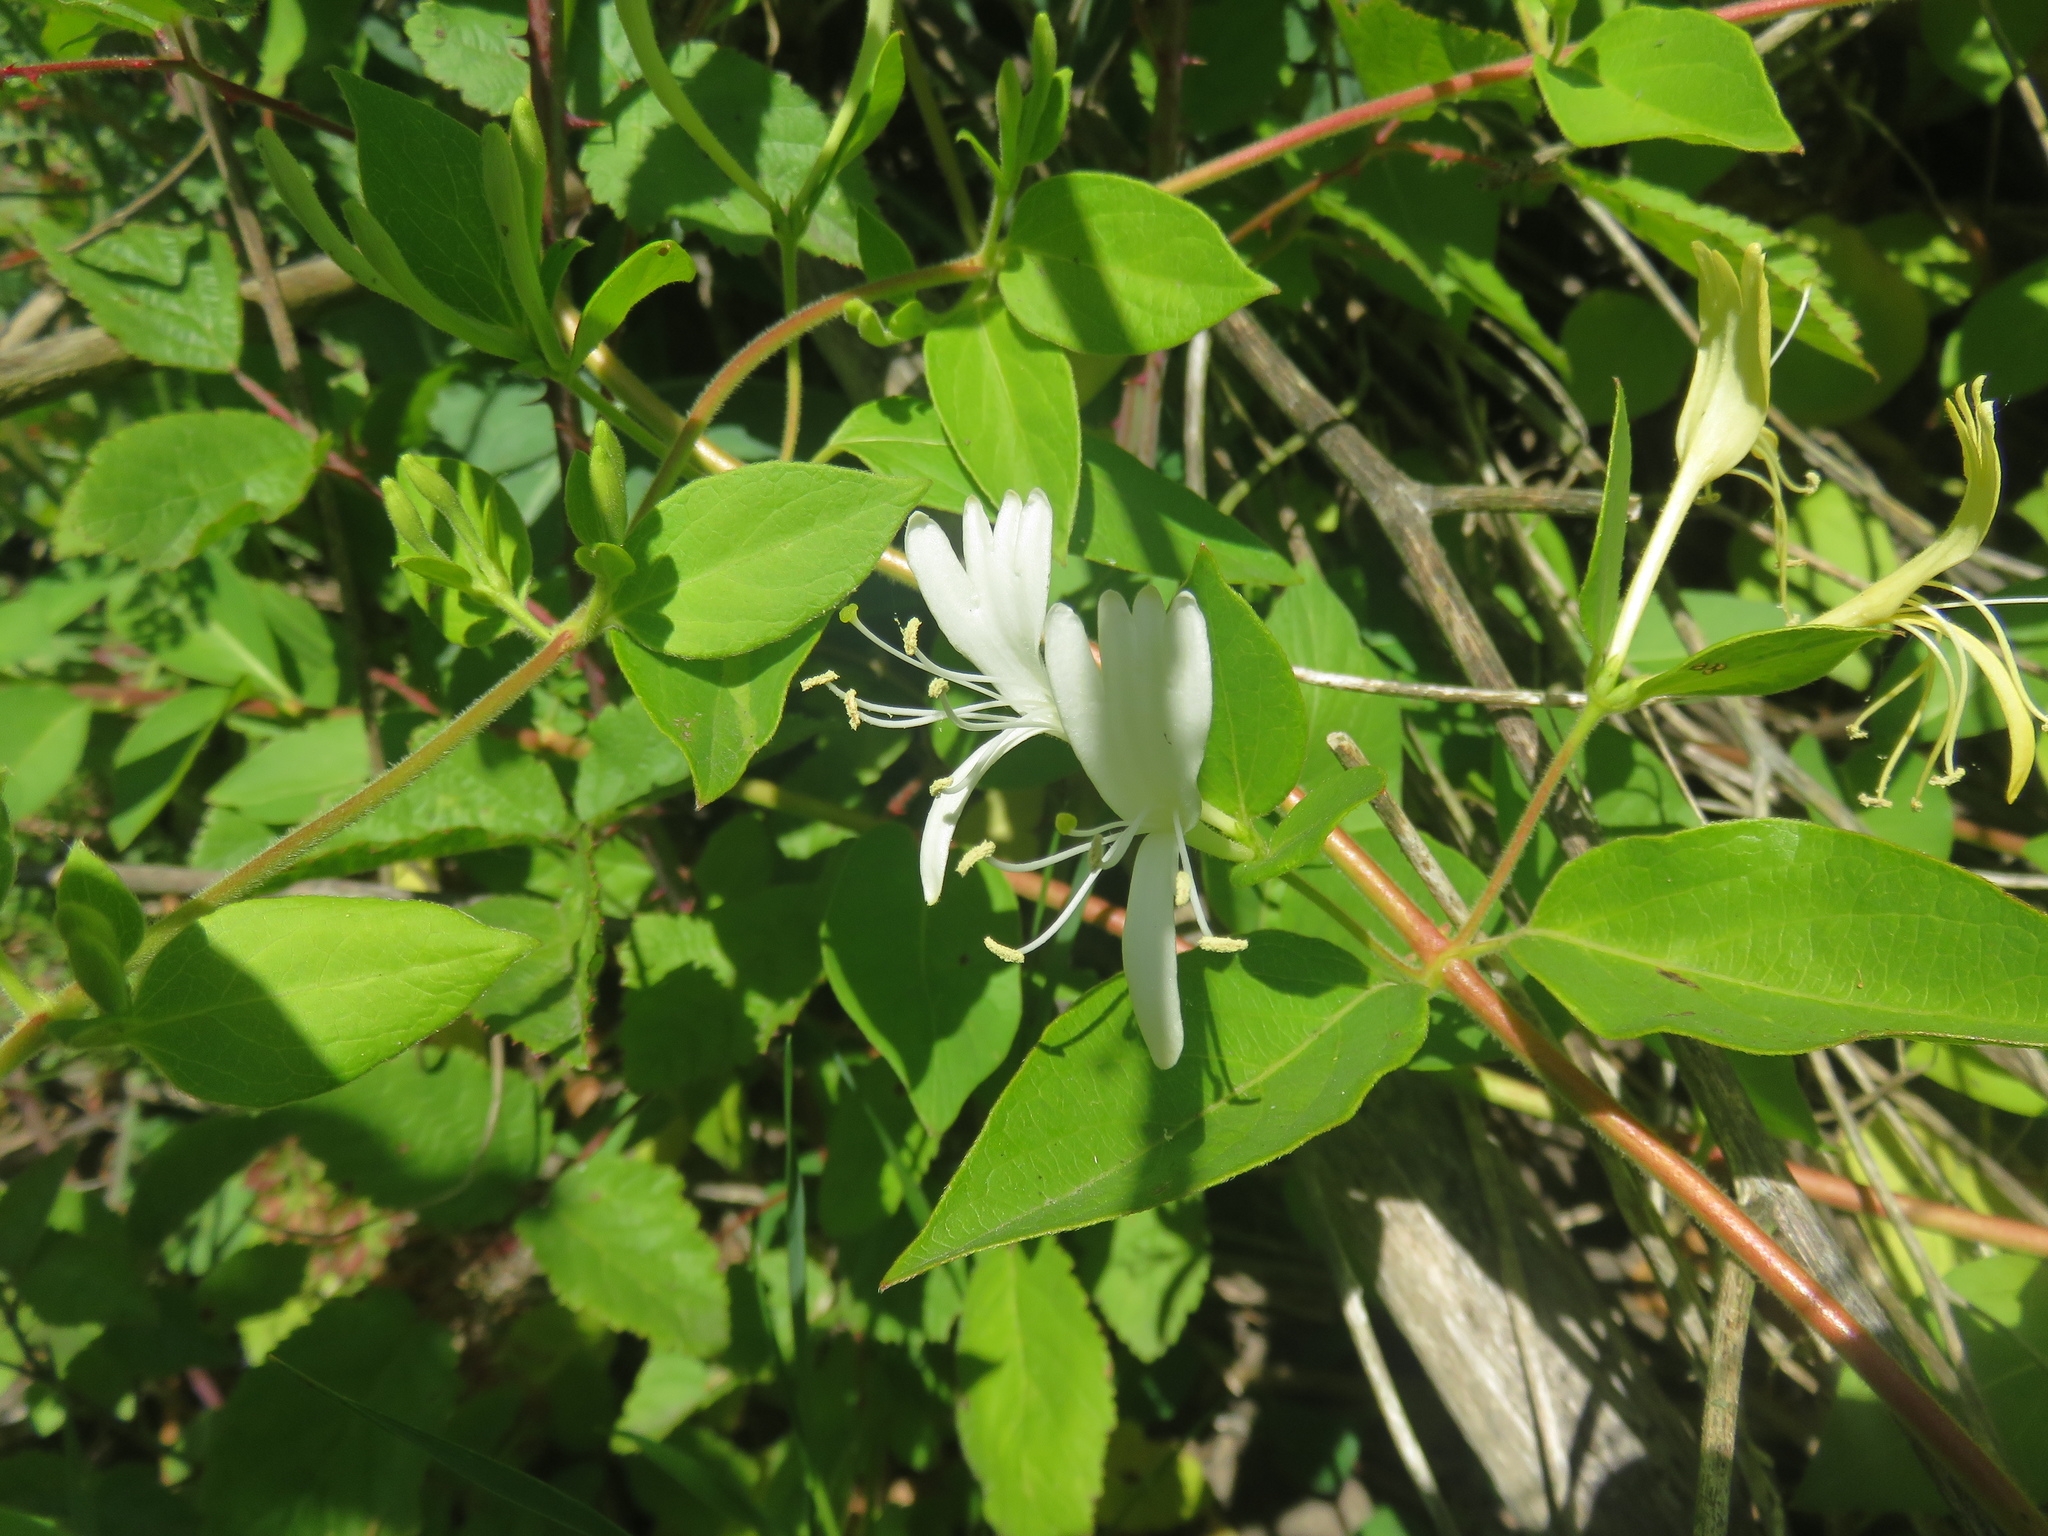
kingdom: Plantae
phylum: Tracheophyta
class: Magnoliopsida
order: Dipsacales
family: Caprifoliaceae
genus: Lonicera
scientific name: Lonicera japonica
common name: Japanese honeysuckle
